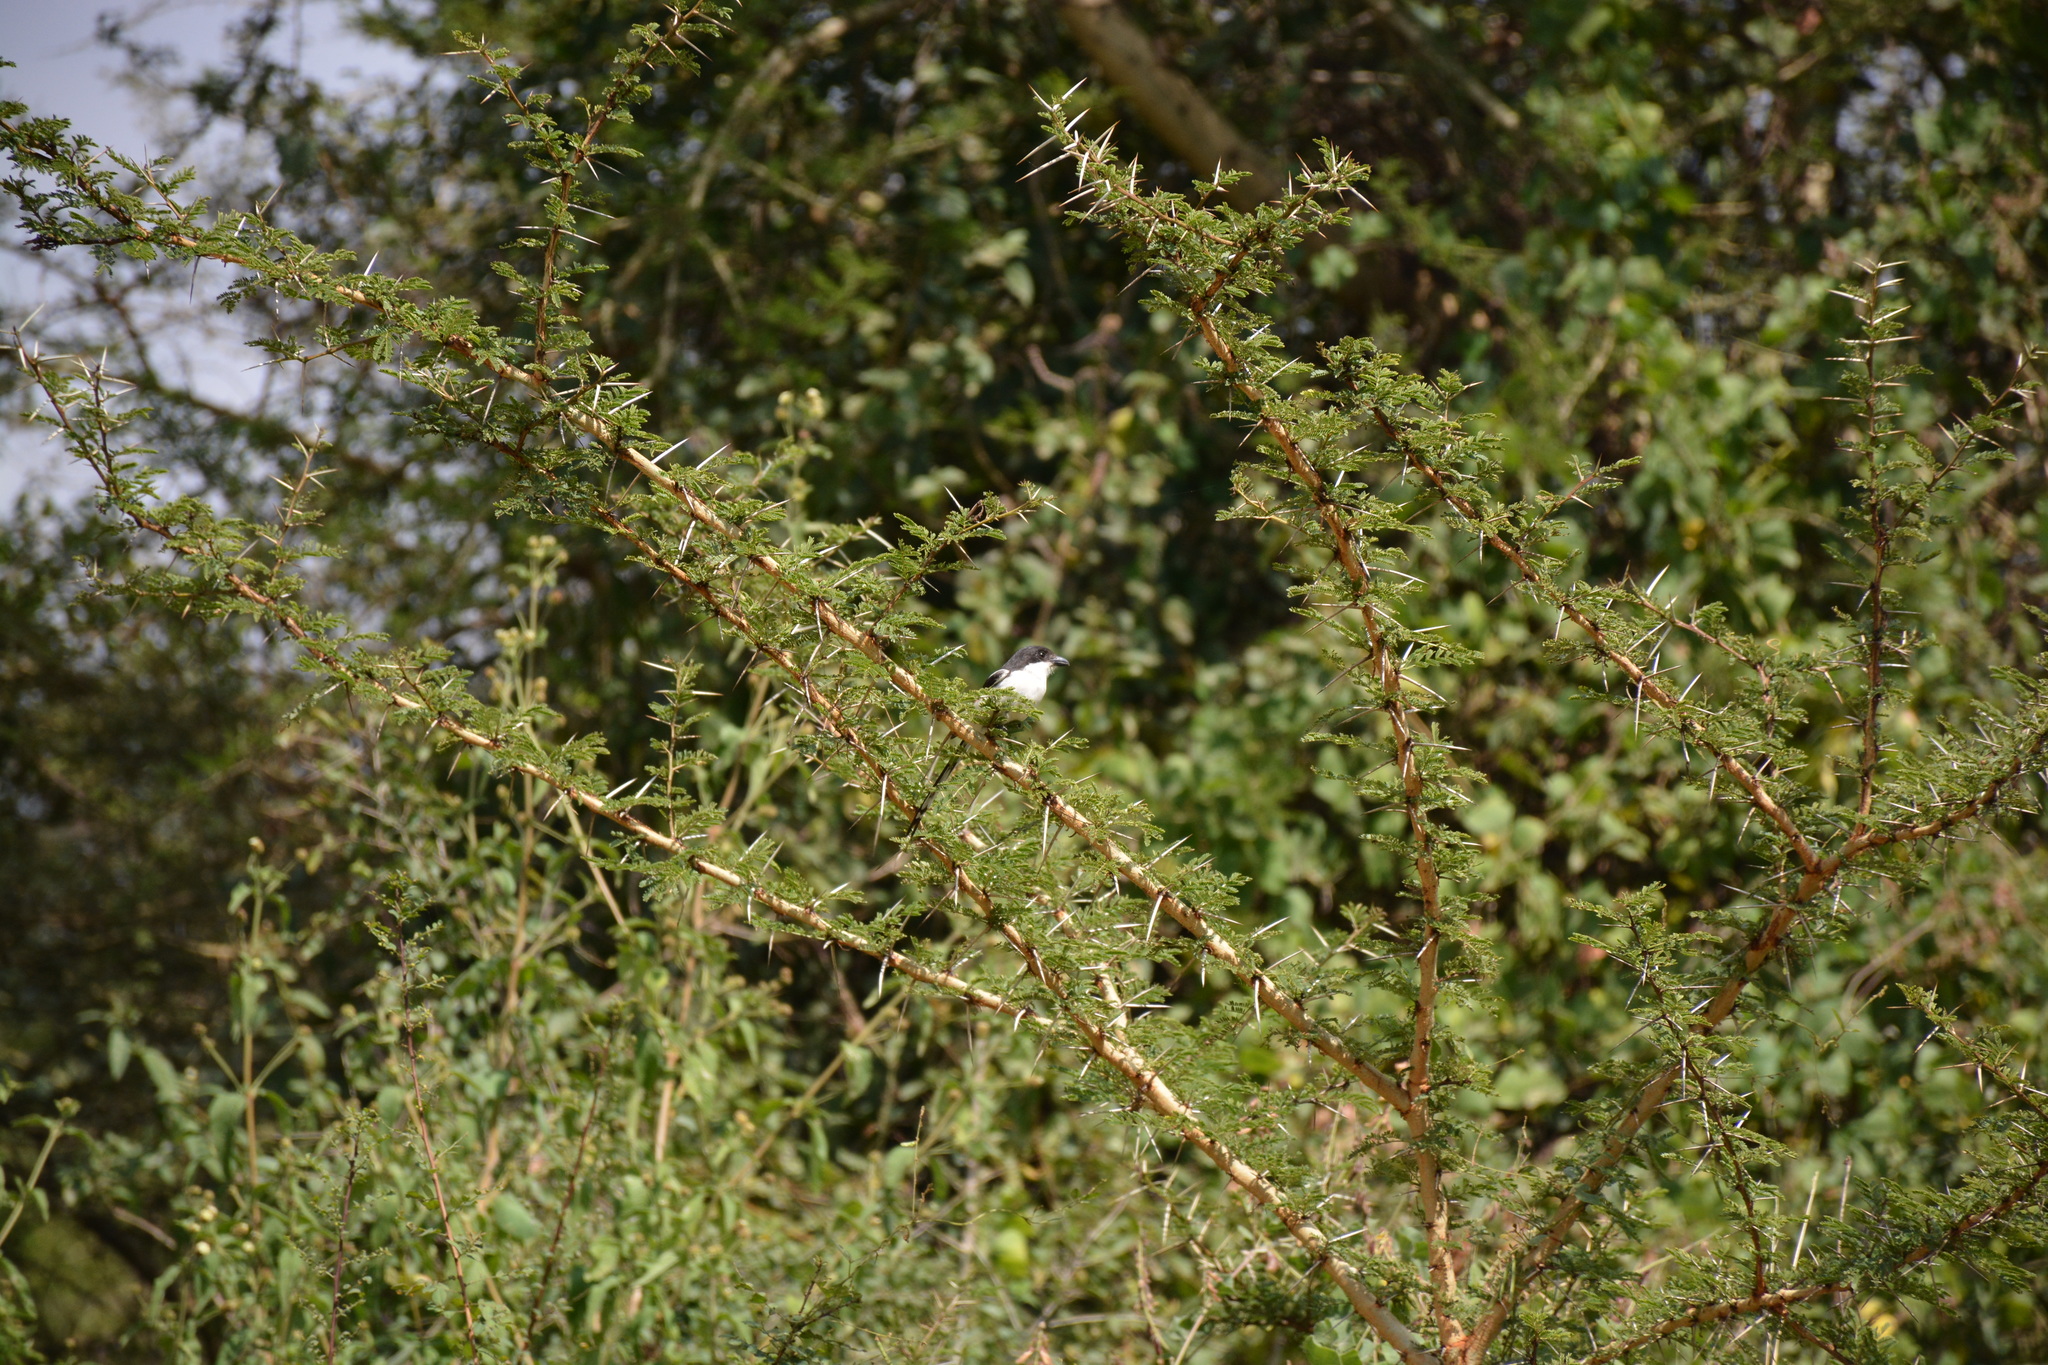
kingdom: Animalia
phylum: Chordata
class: Aves
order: Passeriformes
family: Laniidae
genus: Lanius
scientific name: Lanius humeralis
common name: Northern fiscal
